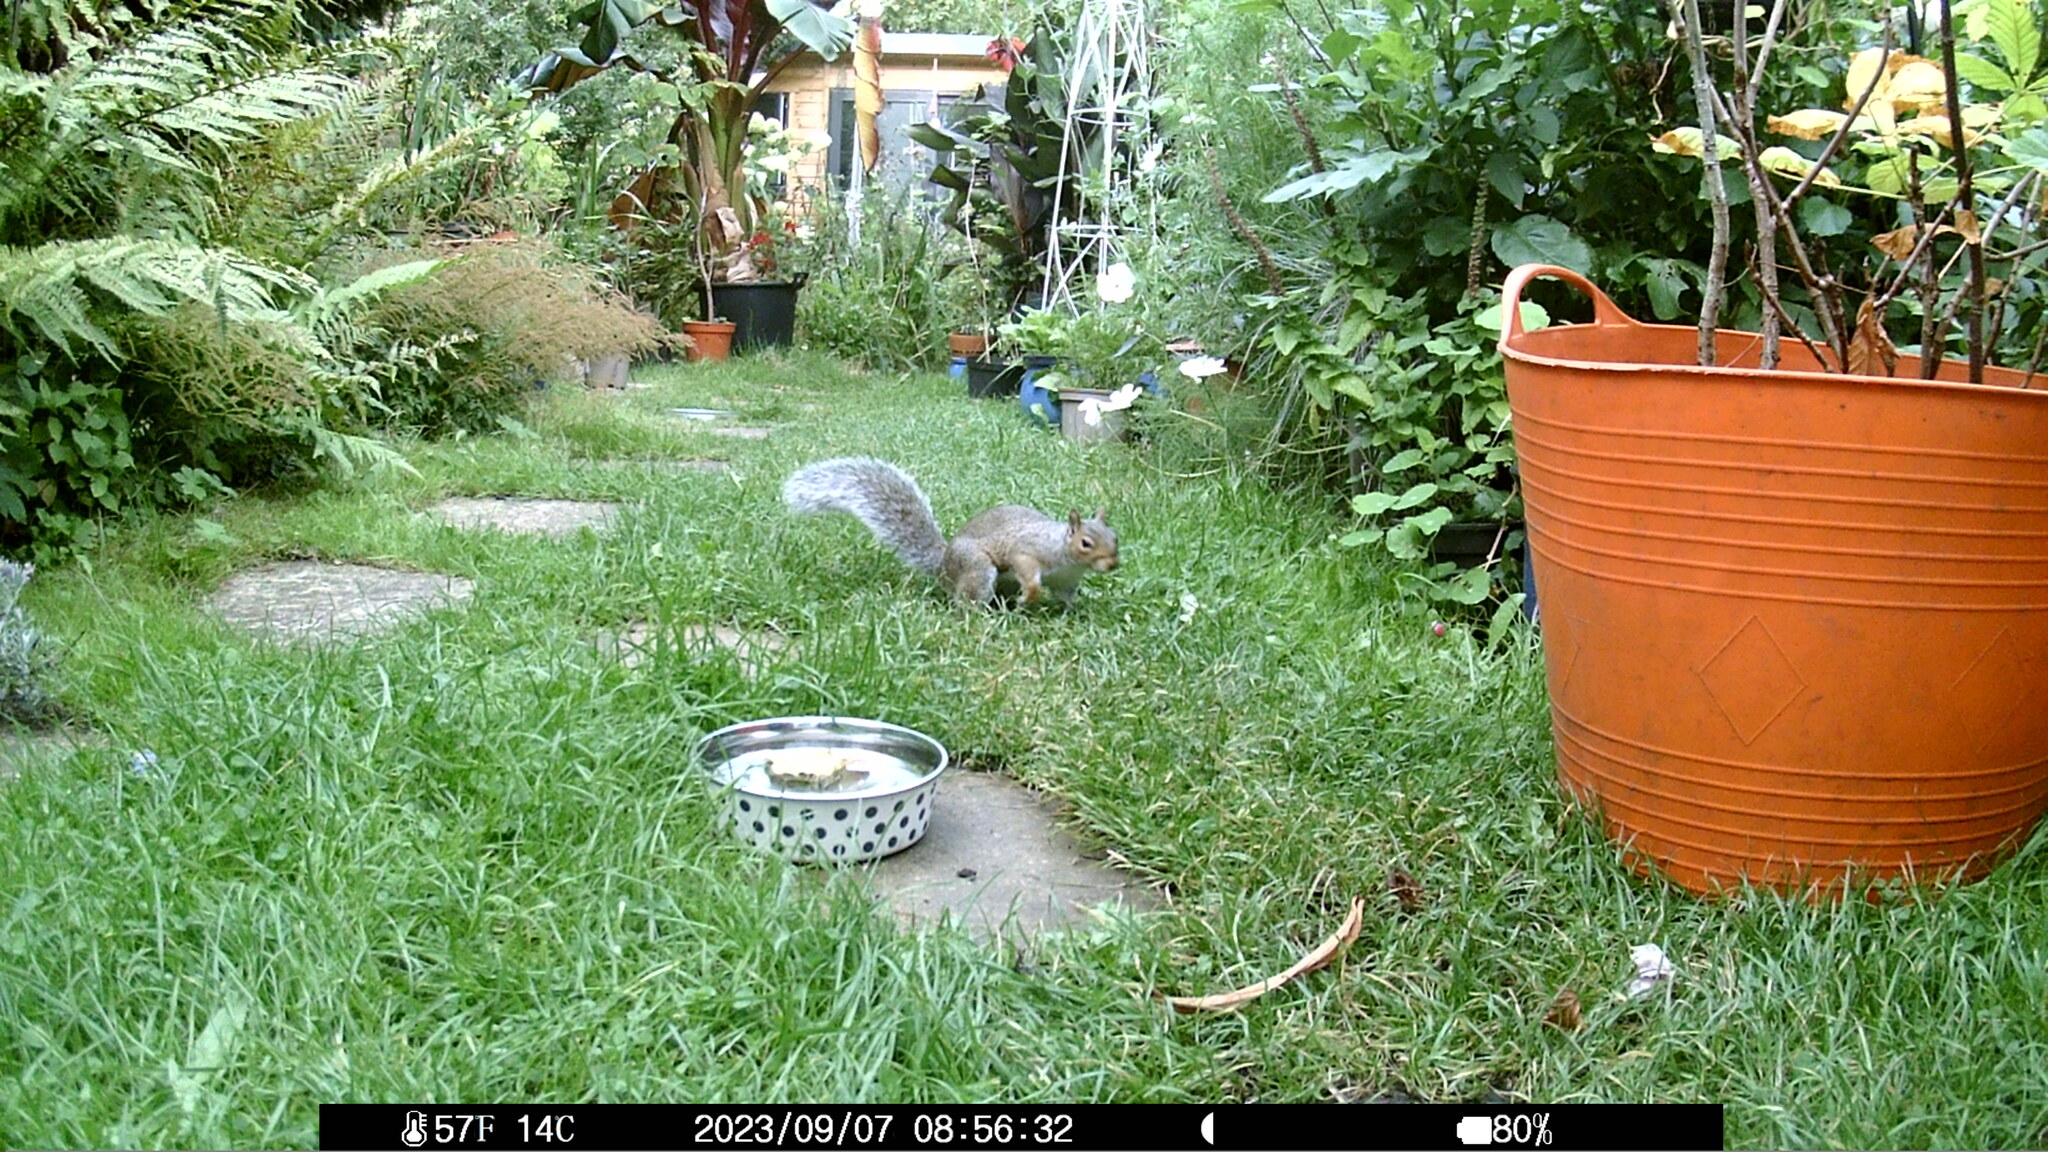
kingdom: Animalia
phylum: Chordata
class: Mammalia
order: Rodentia
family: Sciuridae
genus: Sciurus
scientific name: Sciurus carolinensis
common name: Eastern gray squirrel
